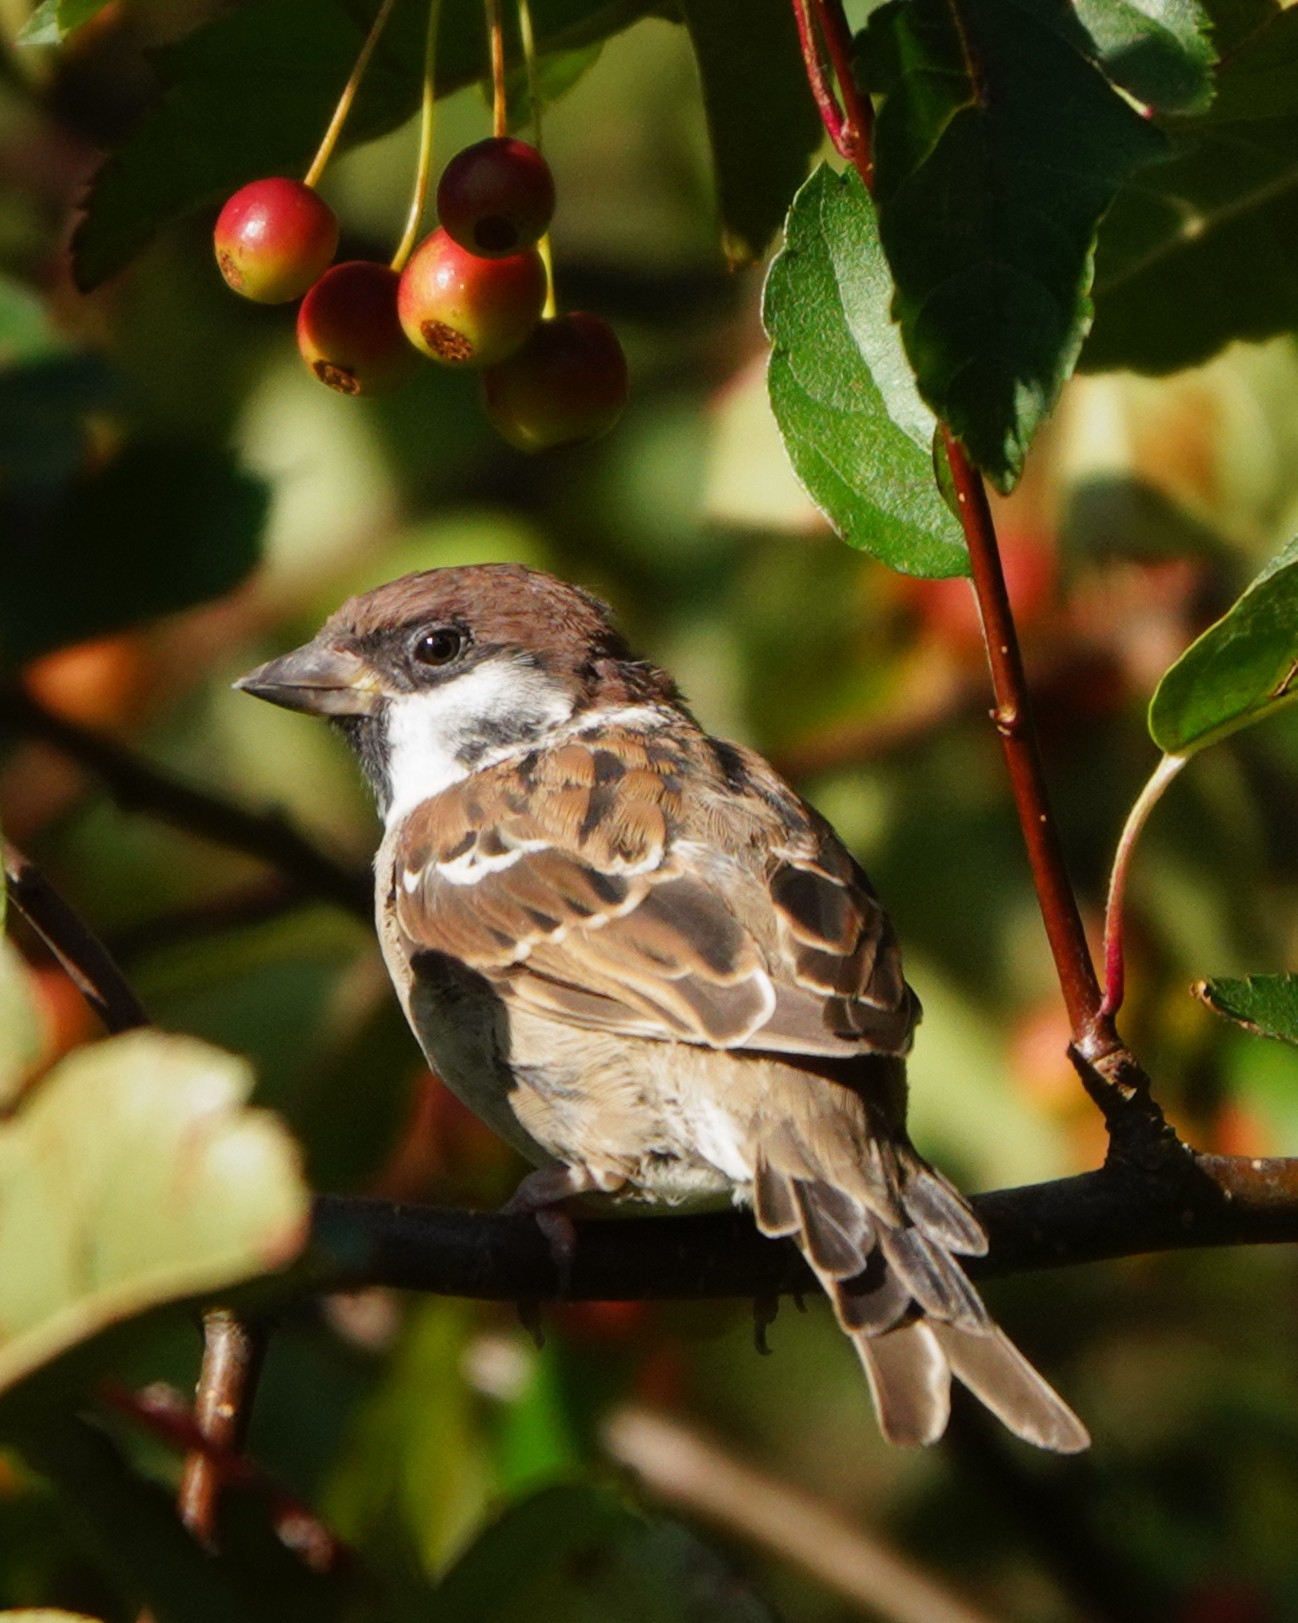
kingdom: Animalia
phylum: Chordata
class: Aves
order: Passeriformes
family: Passeridae
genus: Passer
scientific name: Passer montanus
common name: Eurasian tree sparrow
